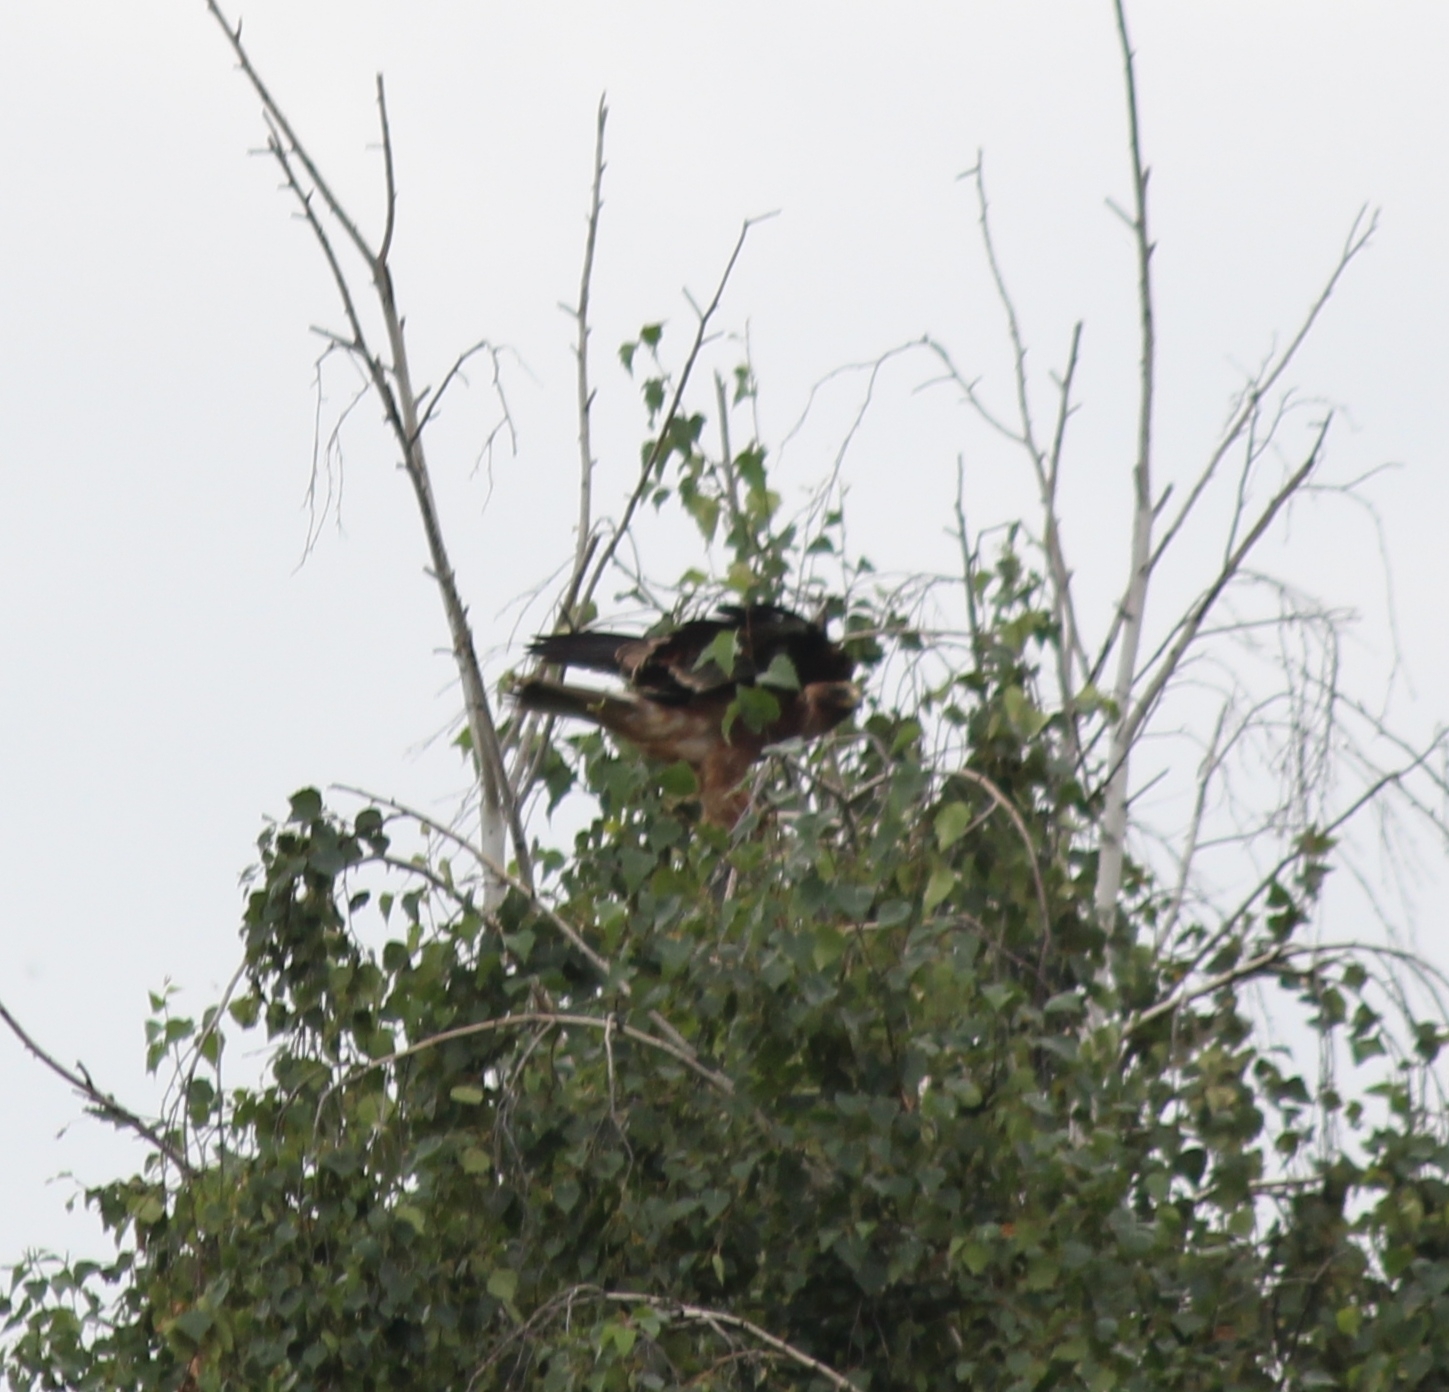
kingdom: Animalia
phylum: Chordata
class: Aves
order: Accipitriformes
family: Accipitridae
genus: Hieraaetus
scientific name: Hieraaetus pennatus
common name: Booted eagle
